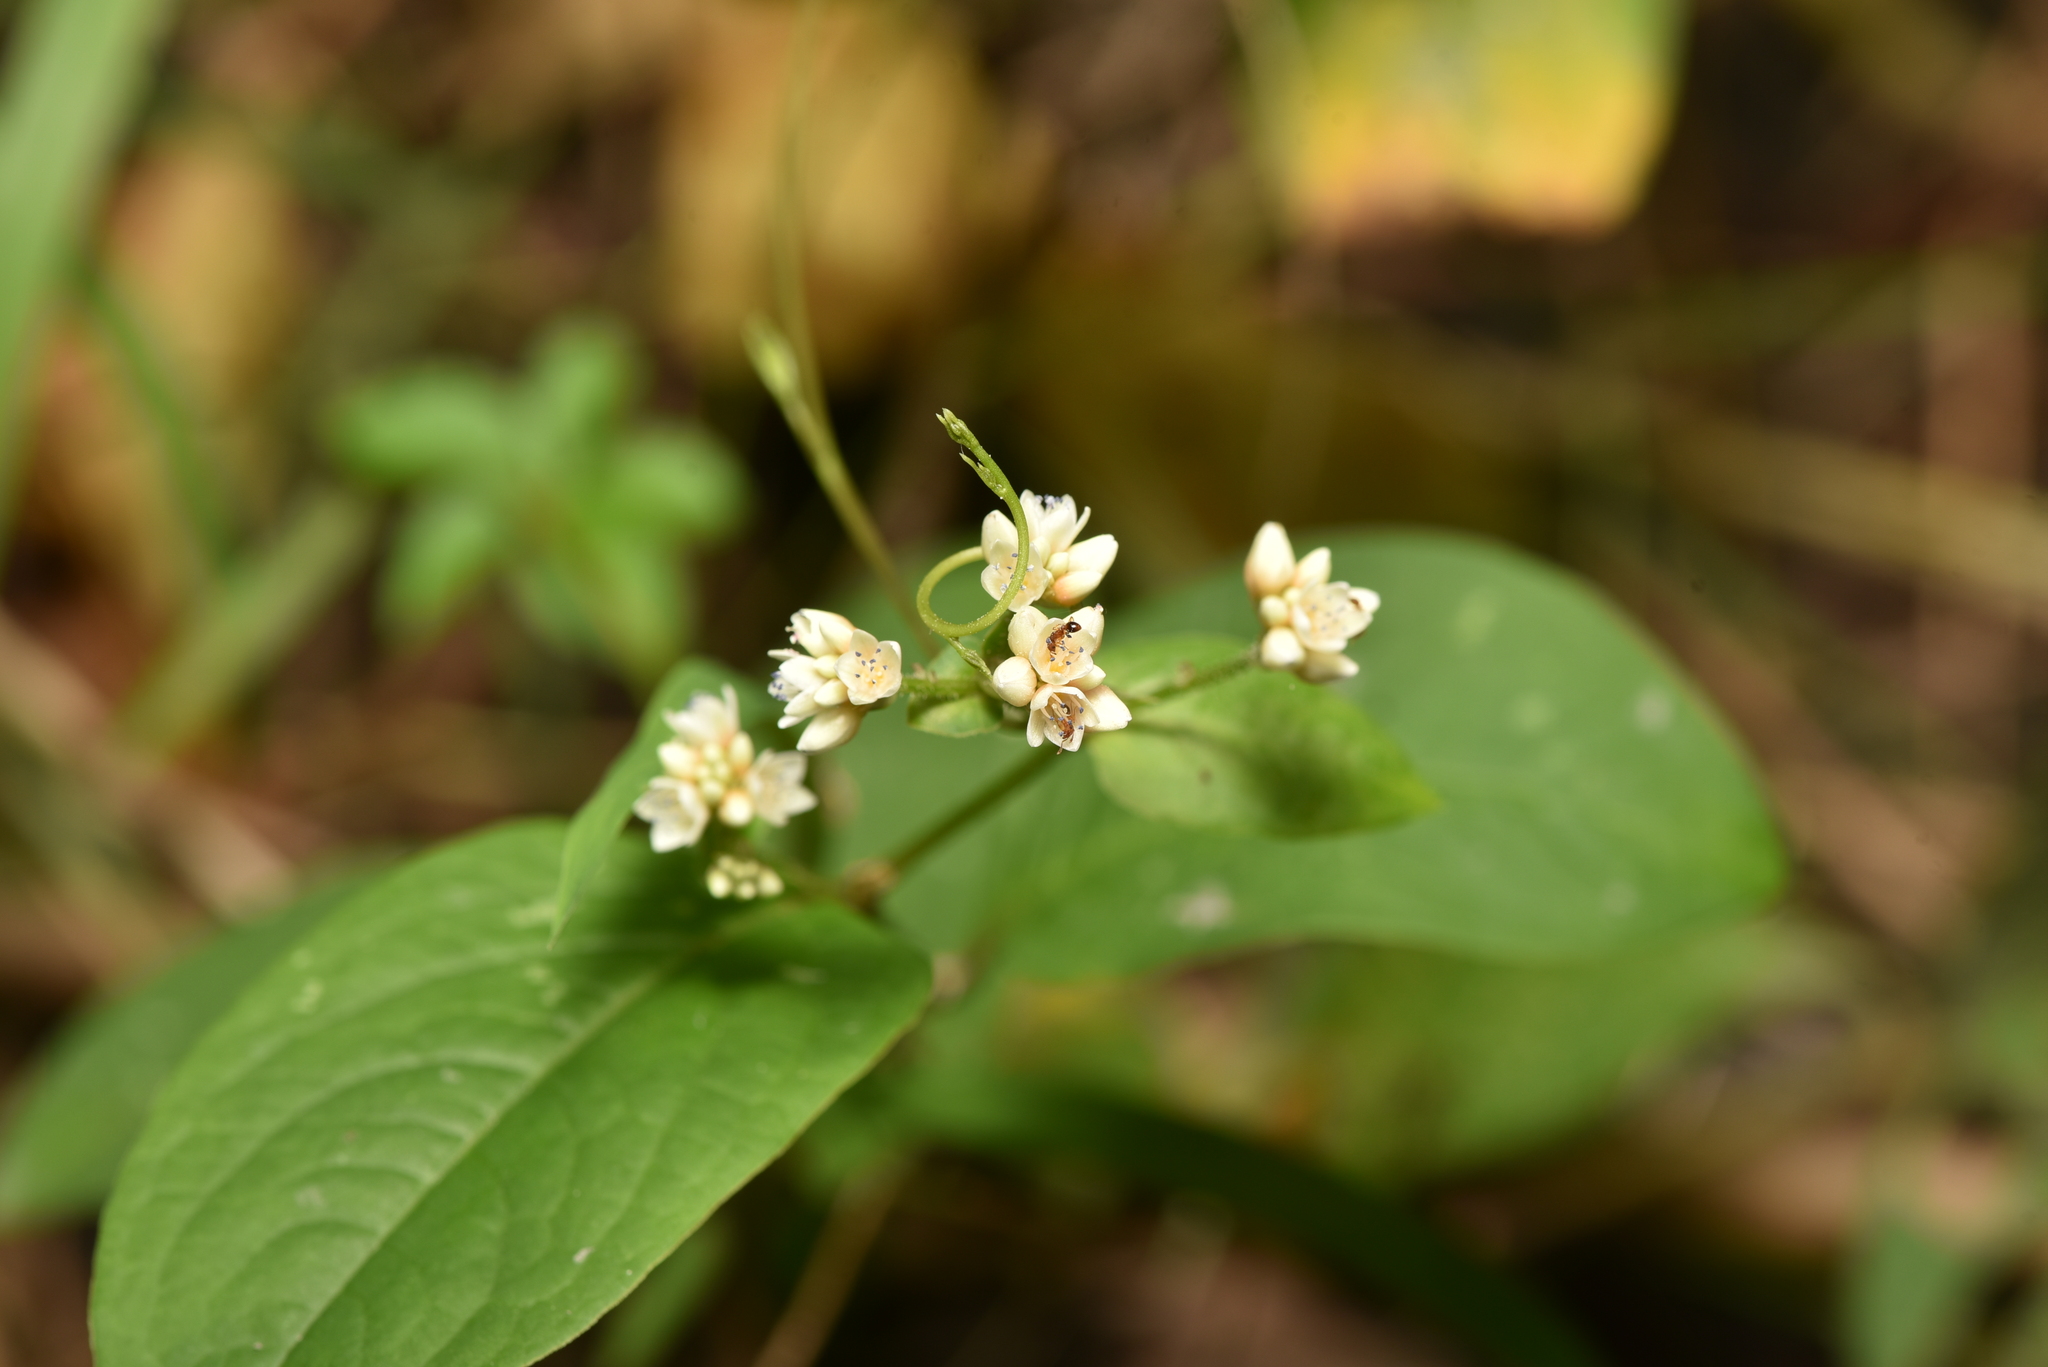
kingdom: Plantae
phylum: Tracheophyta
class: Magnoliopsida
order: Caryophyllales
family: Polygonaceae
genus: Persicaria
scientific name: Persicaria chinensis
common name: Chinese knotweed
